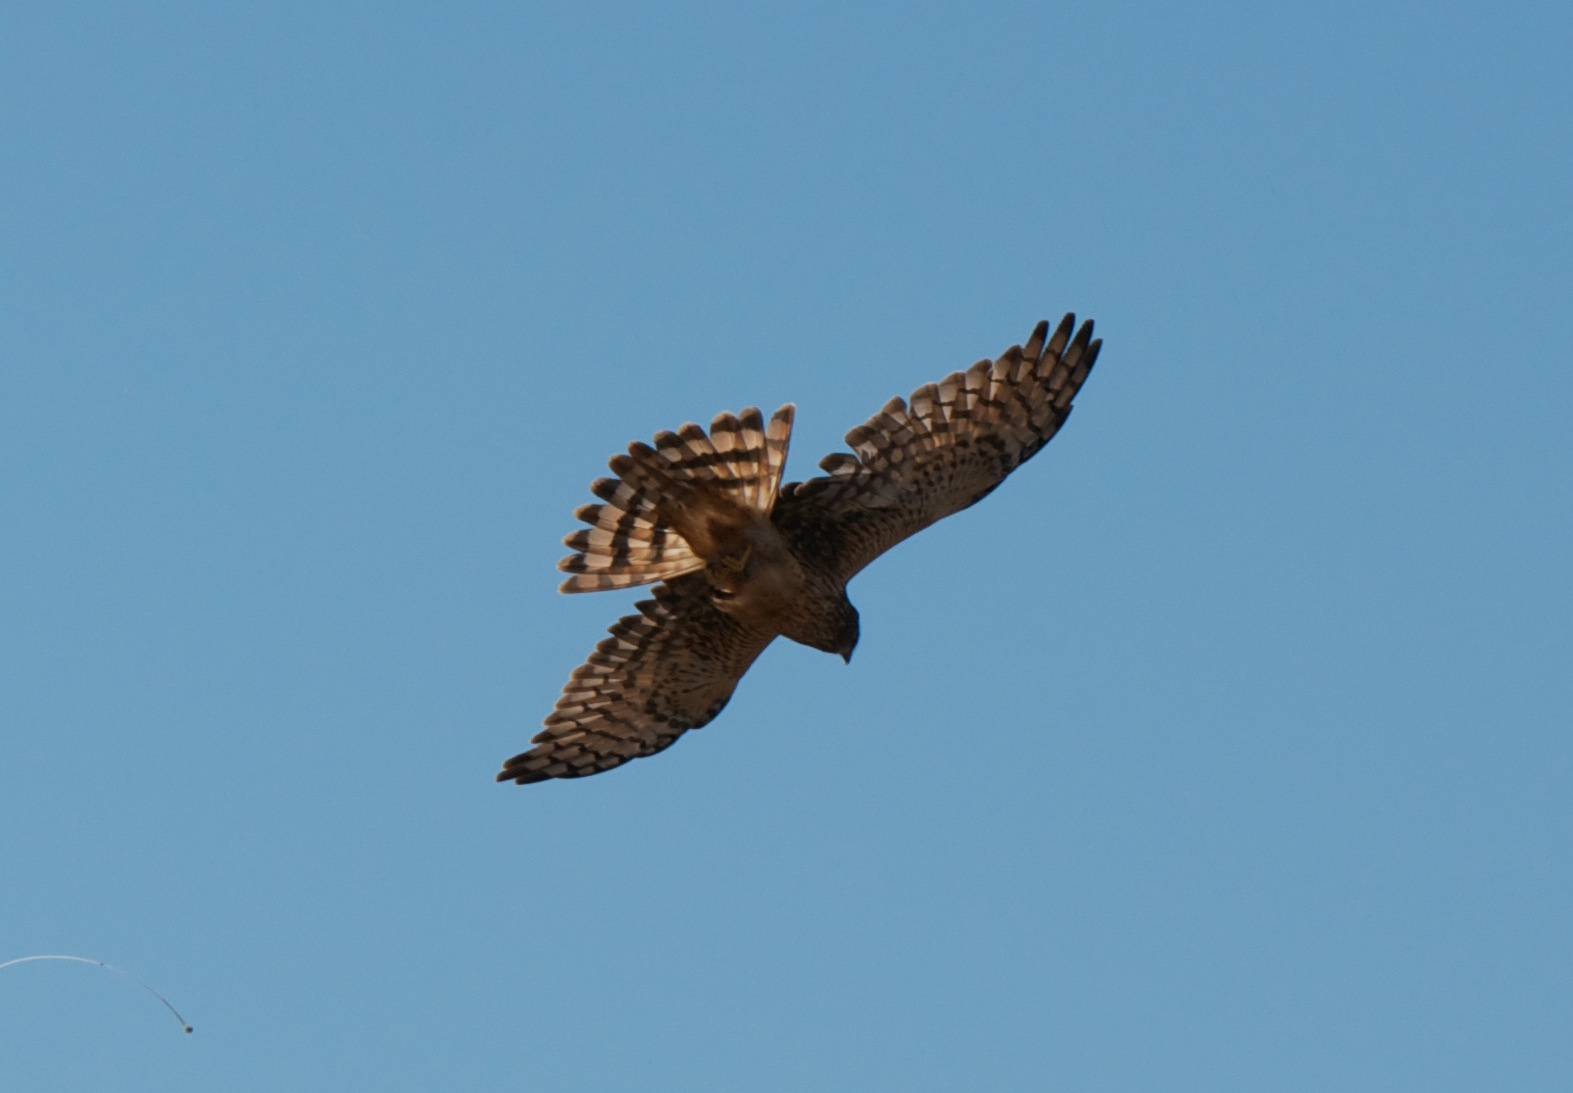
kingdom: Animalia
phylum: Chordata
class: Aves
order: Accipitriformes
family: Accipitridae
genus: Circus
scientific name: Circus cyaneus
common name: Hen harrier
